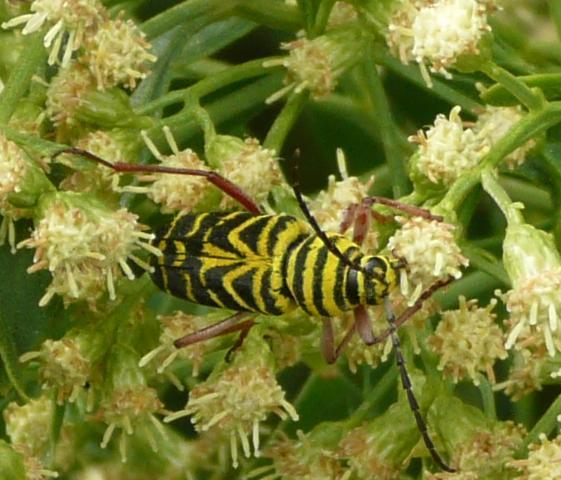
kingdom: Animalia
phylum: Arthropoda
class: Insecta
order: Coleoptera
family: Cerambycidae
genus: Megacyllene
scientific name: Megacyllene robiniae
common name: Locust borer
